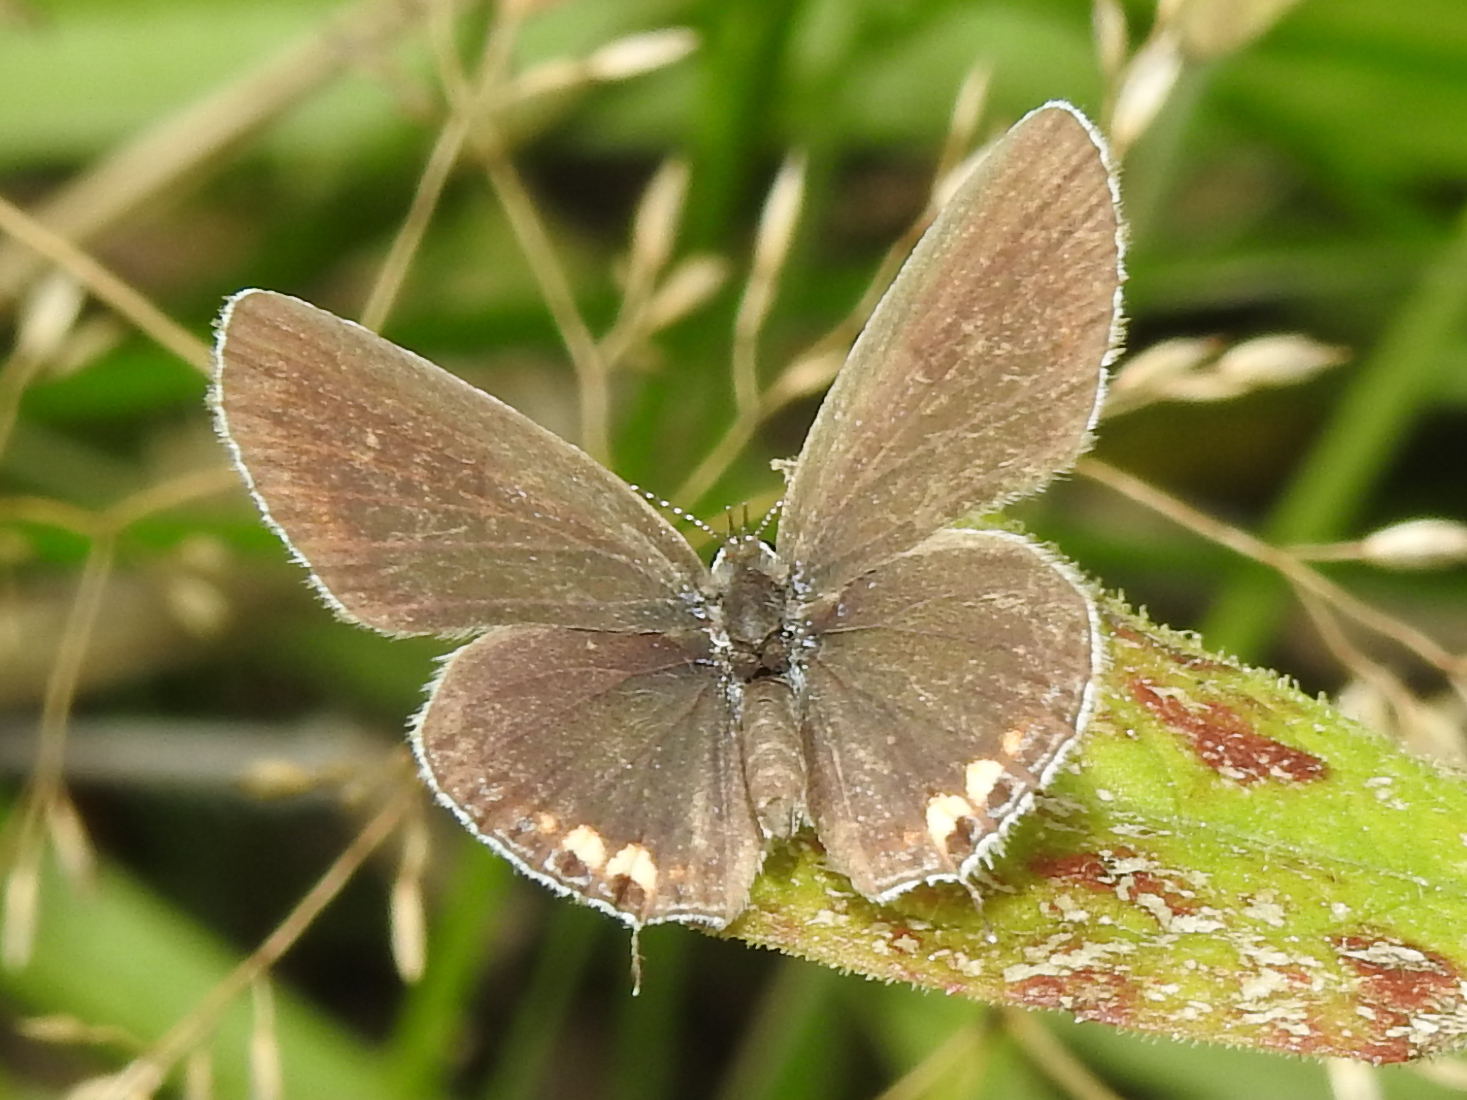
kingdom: Animalia
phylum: Arthropoda
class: Insecta
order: Lepidoptera
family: Lycaenidae
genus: Elkalyce
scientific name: Elkalyce comyntas
